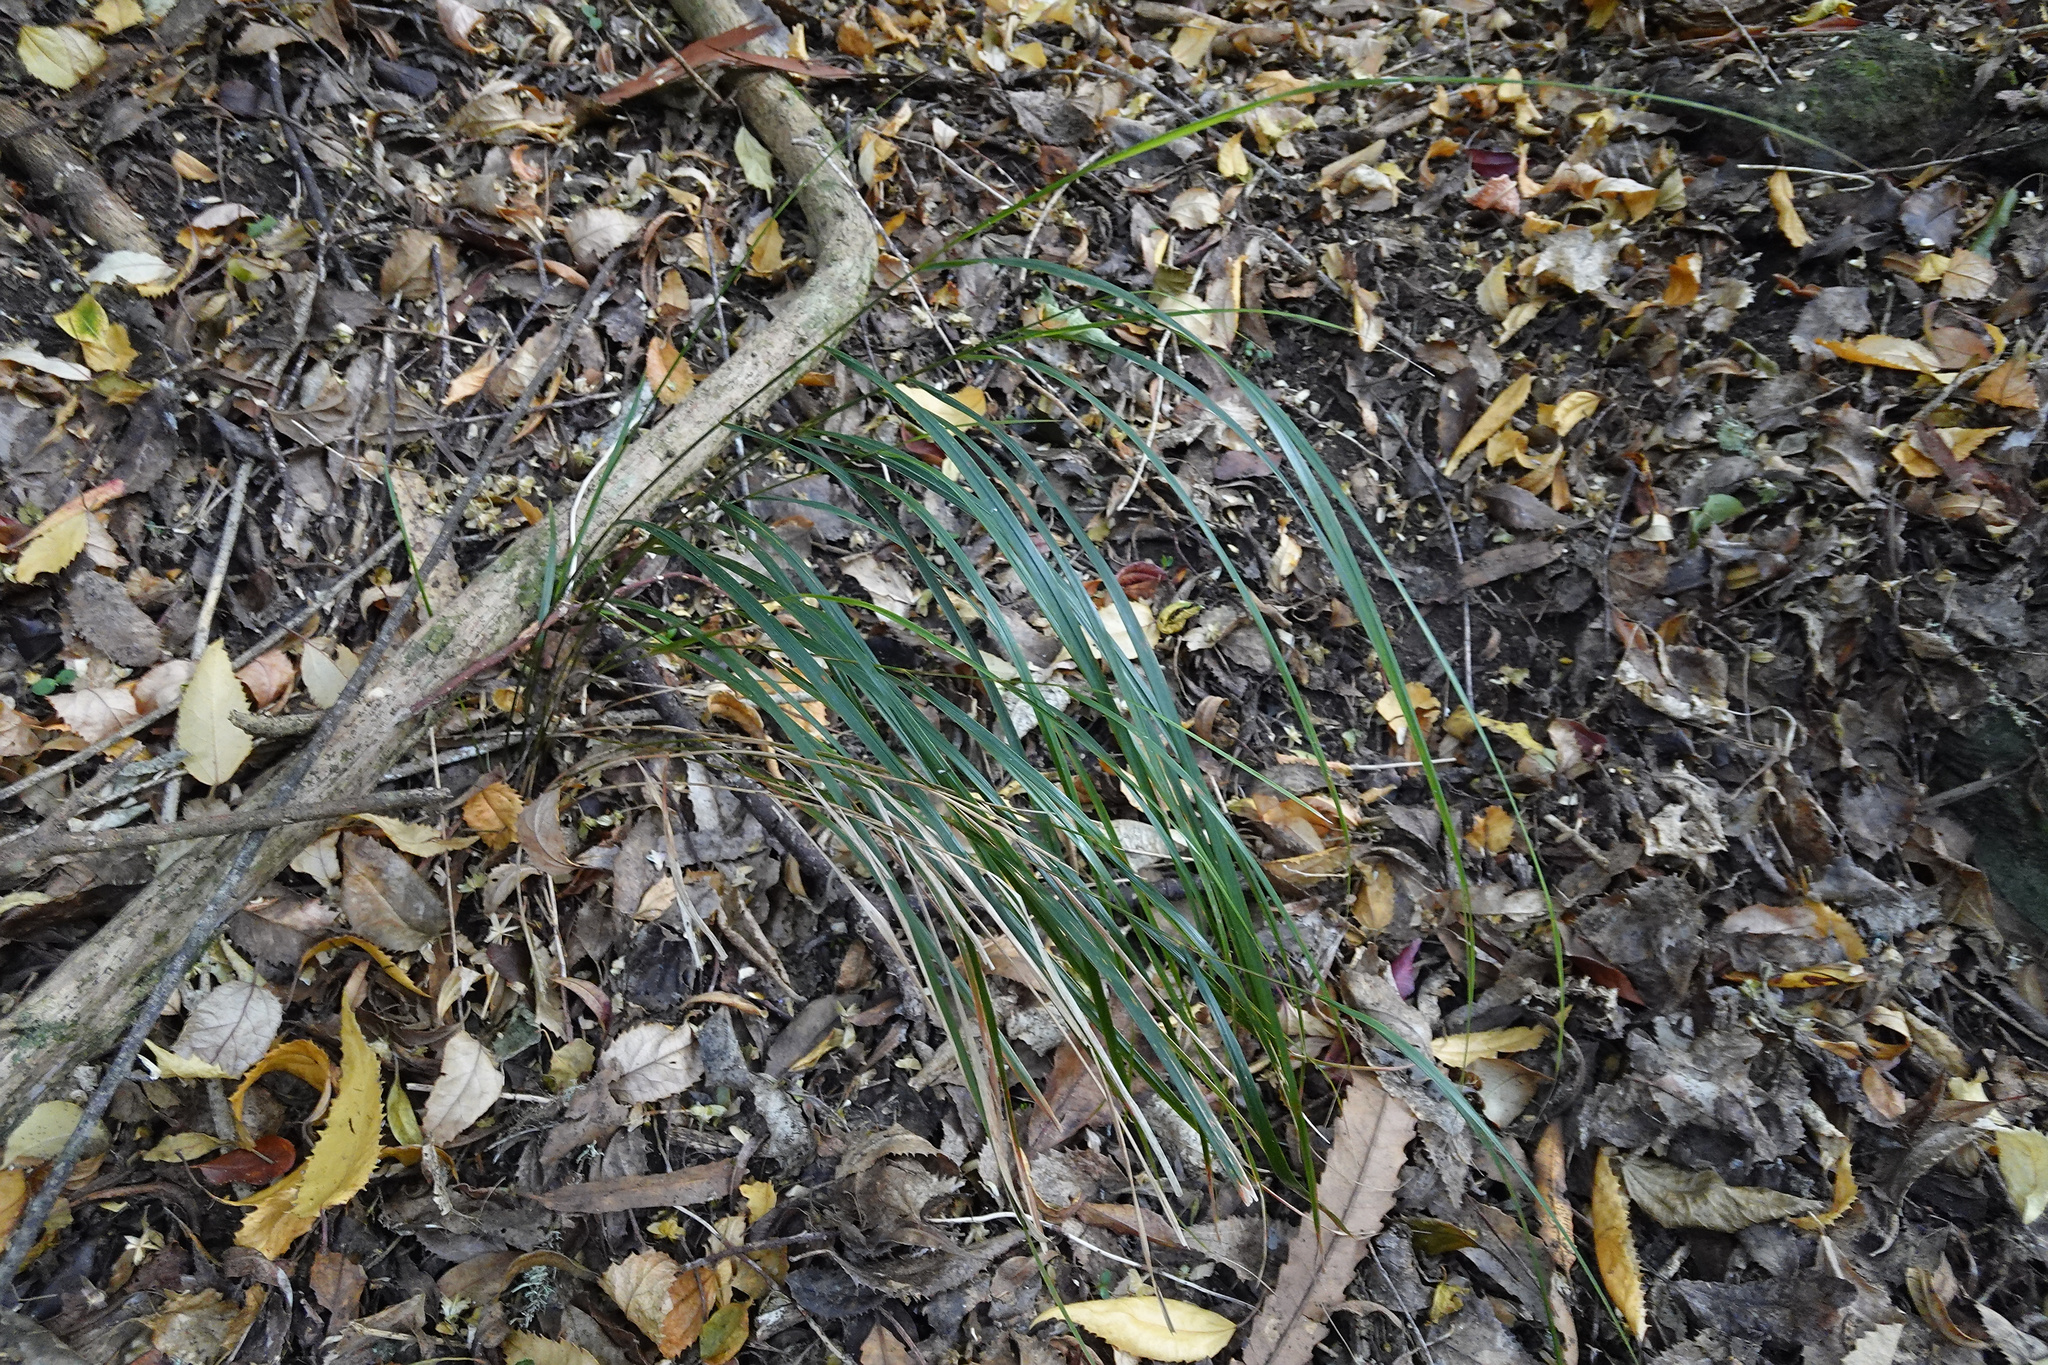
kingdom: Plantae
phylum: Tracheophyta
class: Liliopsida
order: Poales
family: Poaceae
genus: Anemanthele
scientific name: Anemanthele lessoniana
